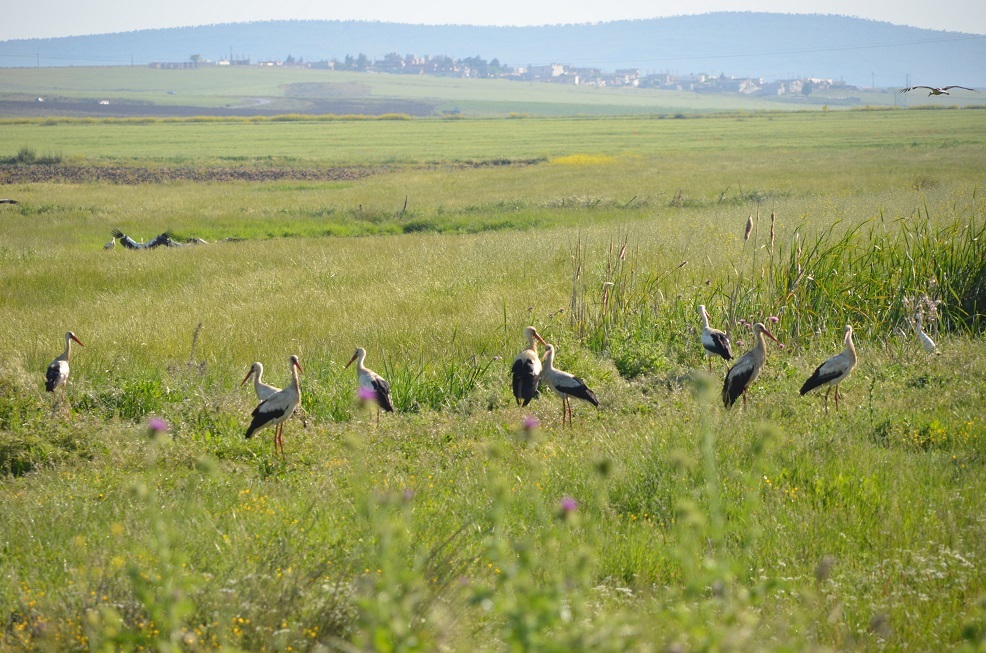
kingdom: Animalia
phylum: Chordata
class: Aves
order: Ciconiiformes
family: Ciconiidae
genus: Ciconia
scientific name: Ciconia ciconia
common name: White stork
